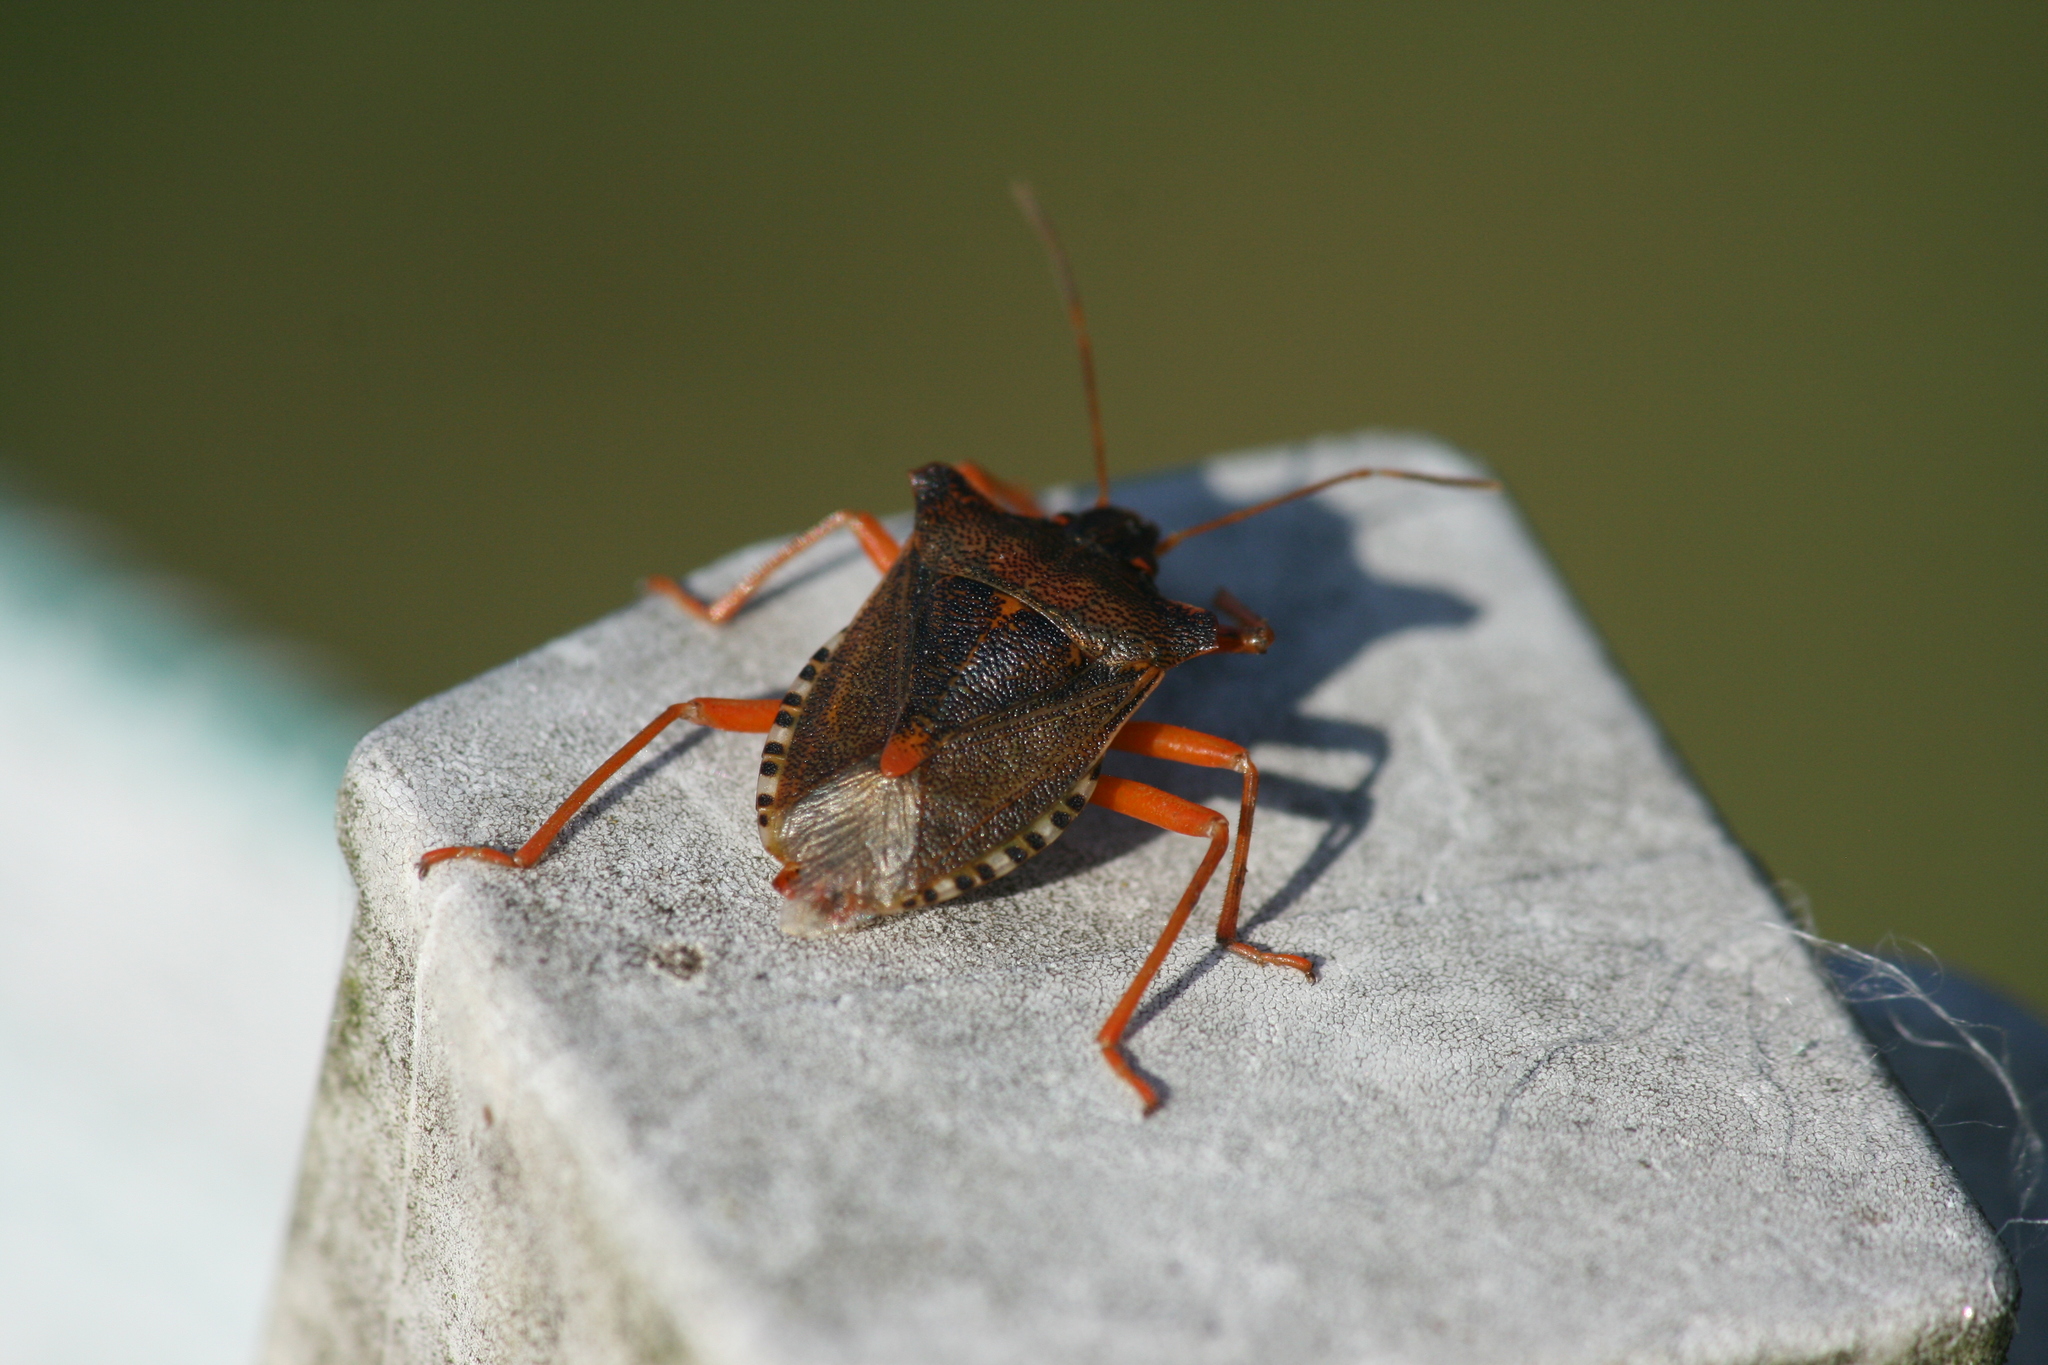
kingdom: Animalia
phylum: Arthropoda
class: Insecta
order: Hemiptera
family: Pentatomidae
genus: Pentatoma
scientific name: Pentatoma rufipes
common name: Forest bug
